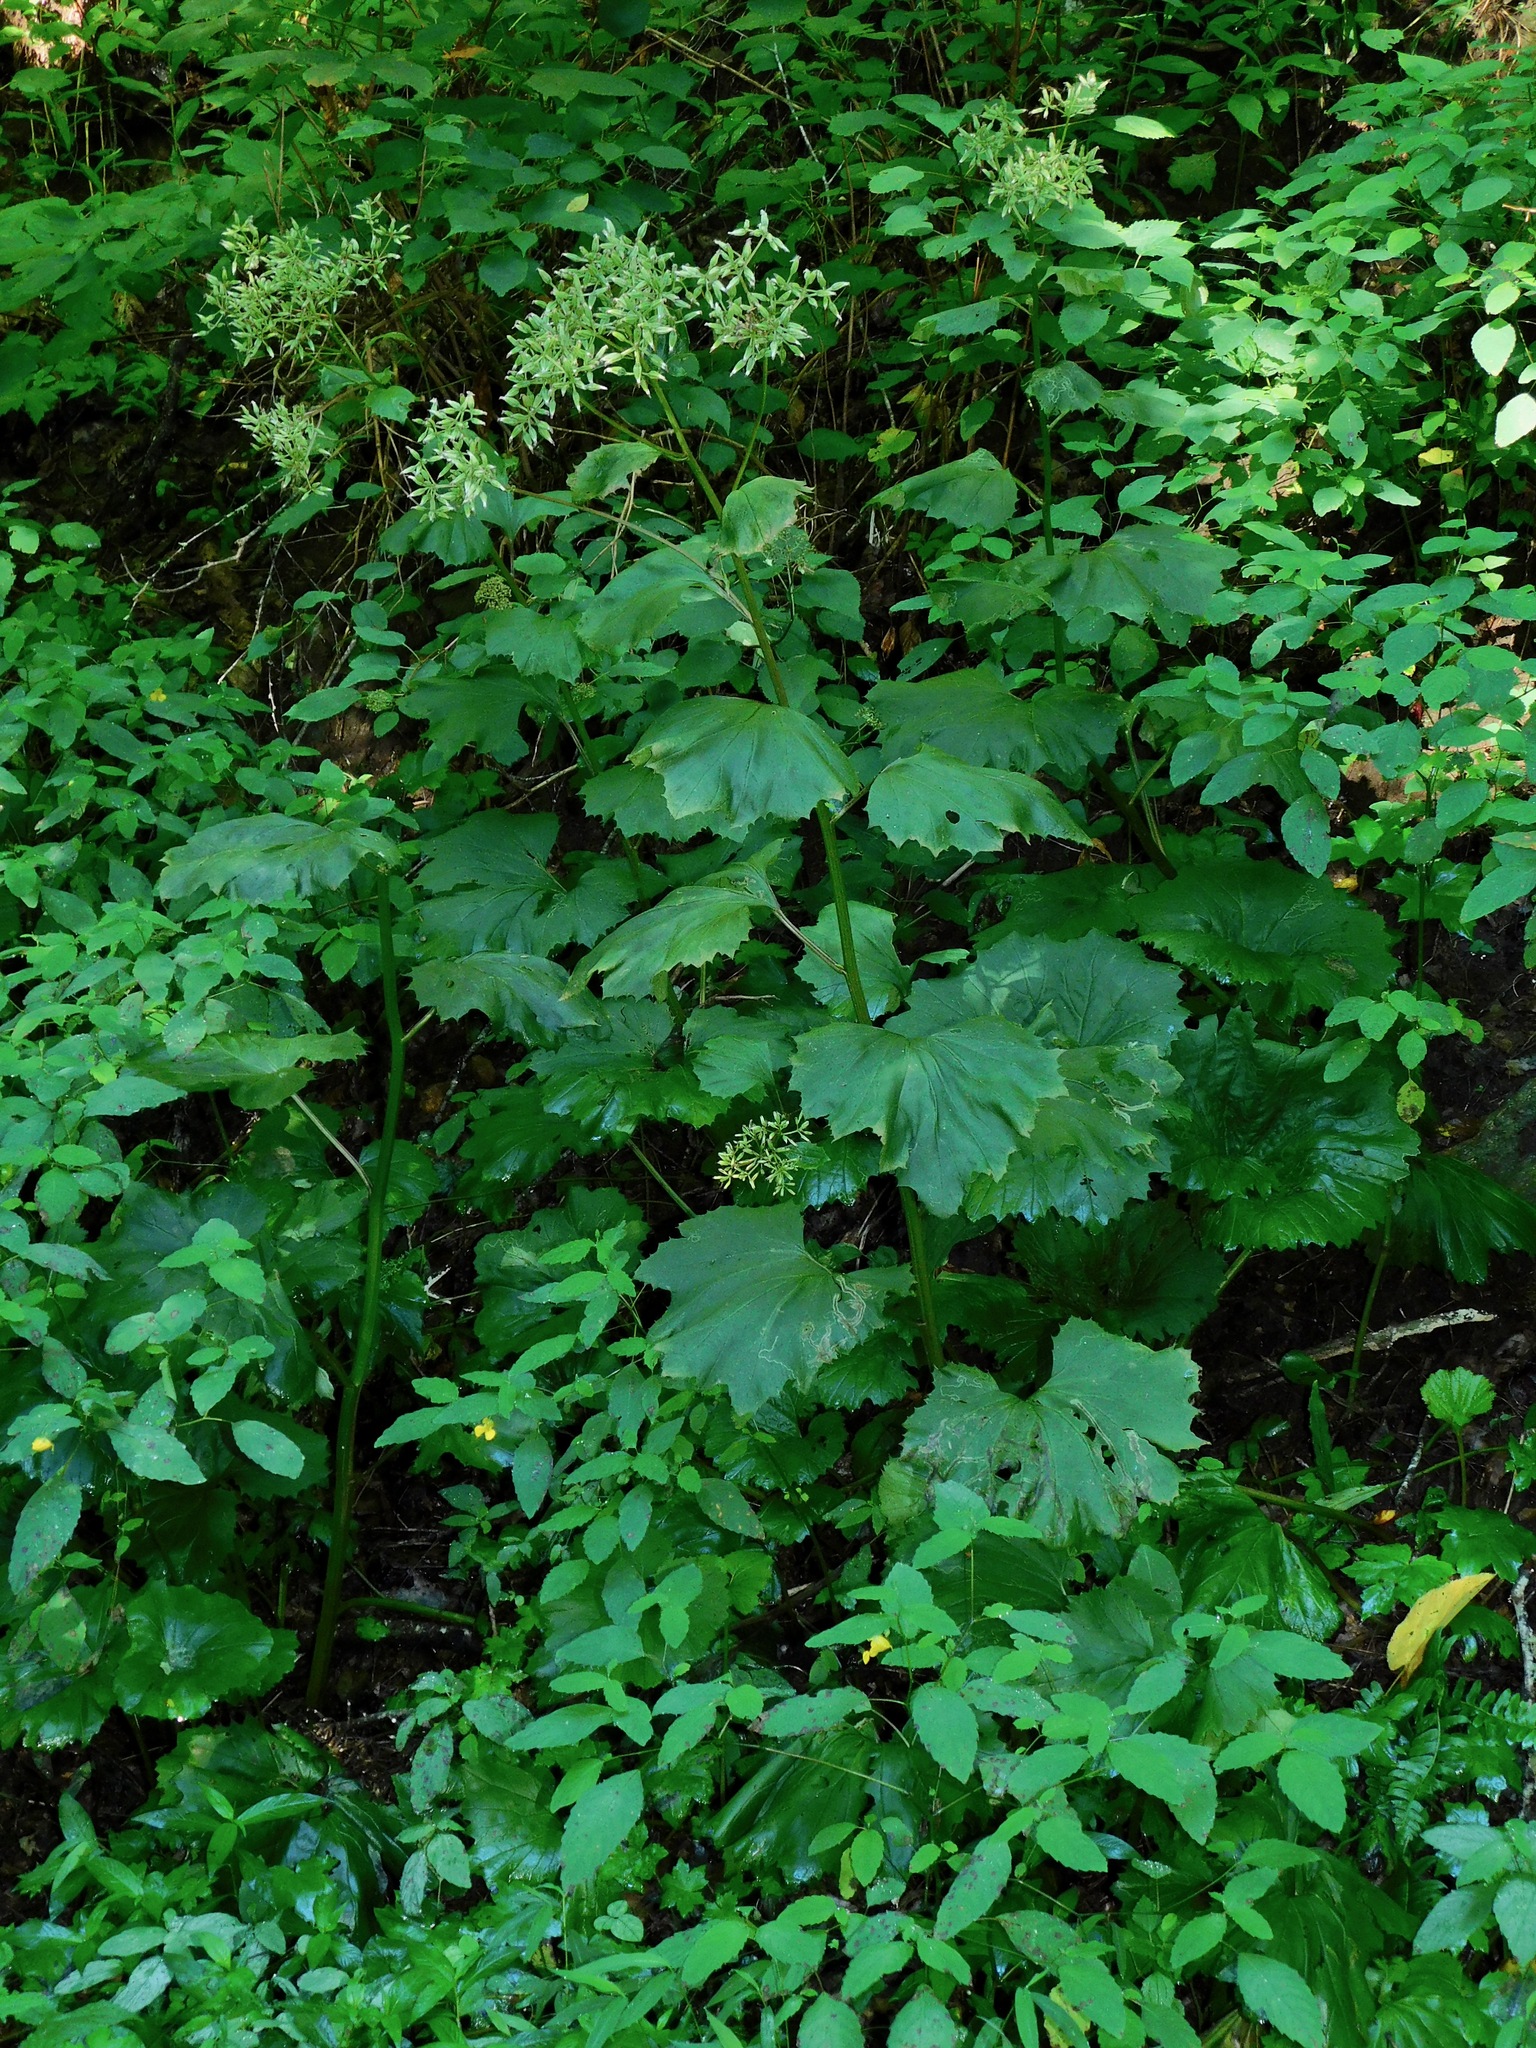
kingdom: Plantae
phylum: Tracheophyta
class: Magnoliopsida
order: Asterales
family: Asteraceae
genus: Arnoglossum
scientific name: Arnoglossum reniforme
